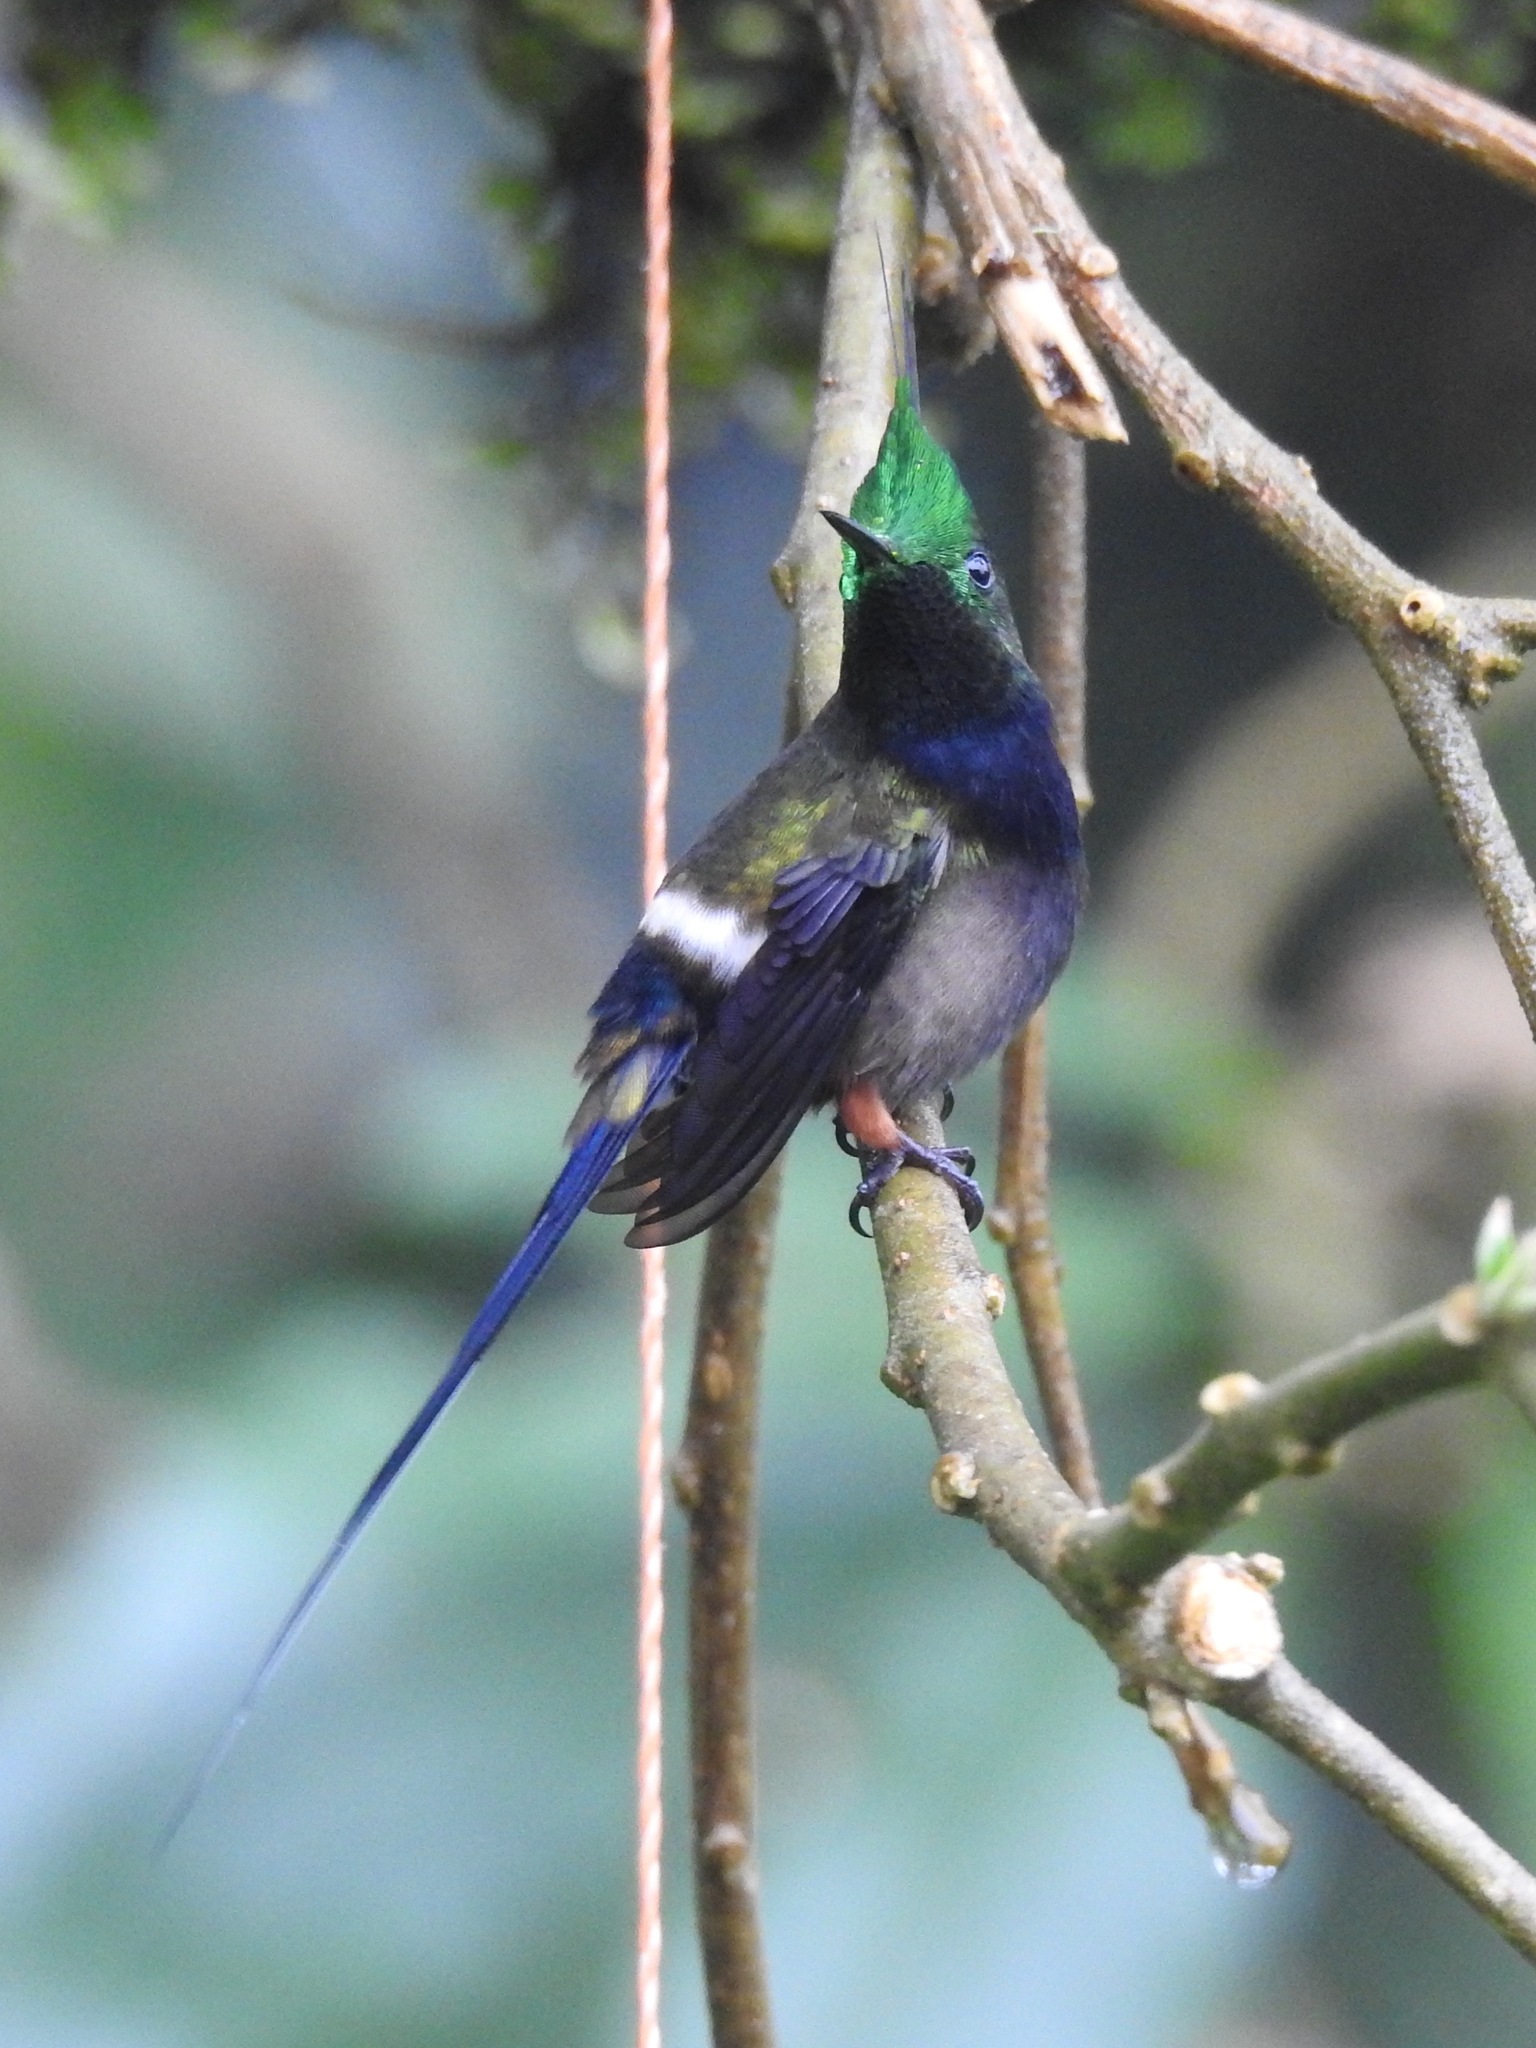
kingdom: Animalia
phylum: Chordata
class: Aves
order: Apodiformes
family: Trochilidae
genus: Discosura
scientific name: Discosura popelairii
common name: Wire-crested thorntail
